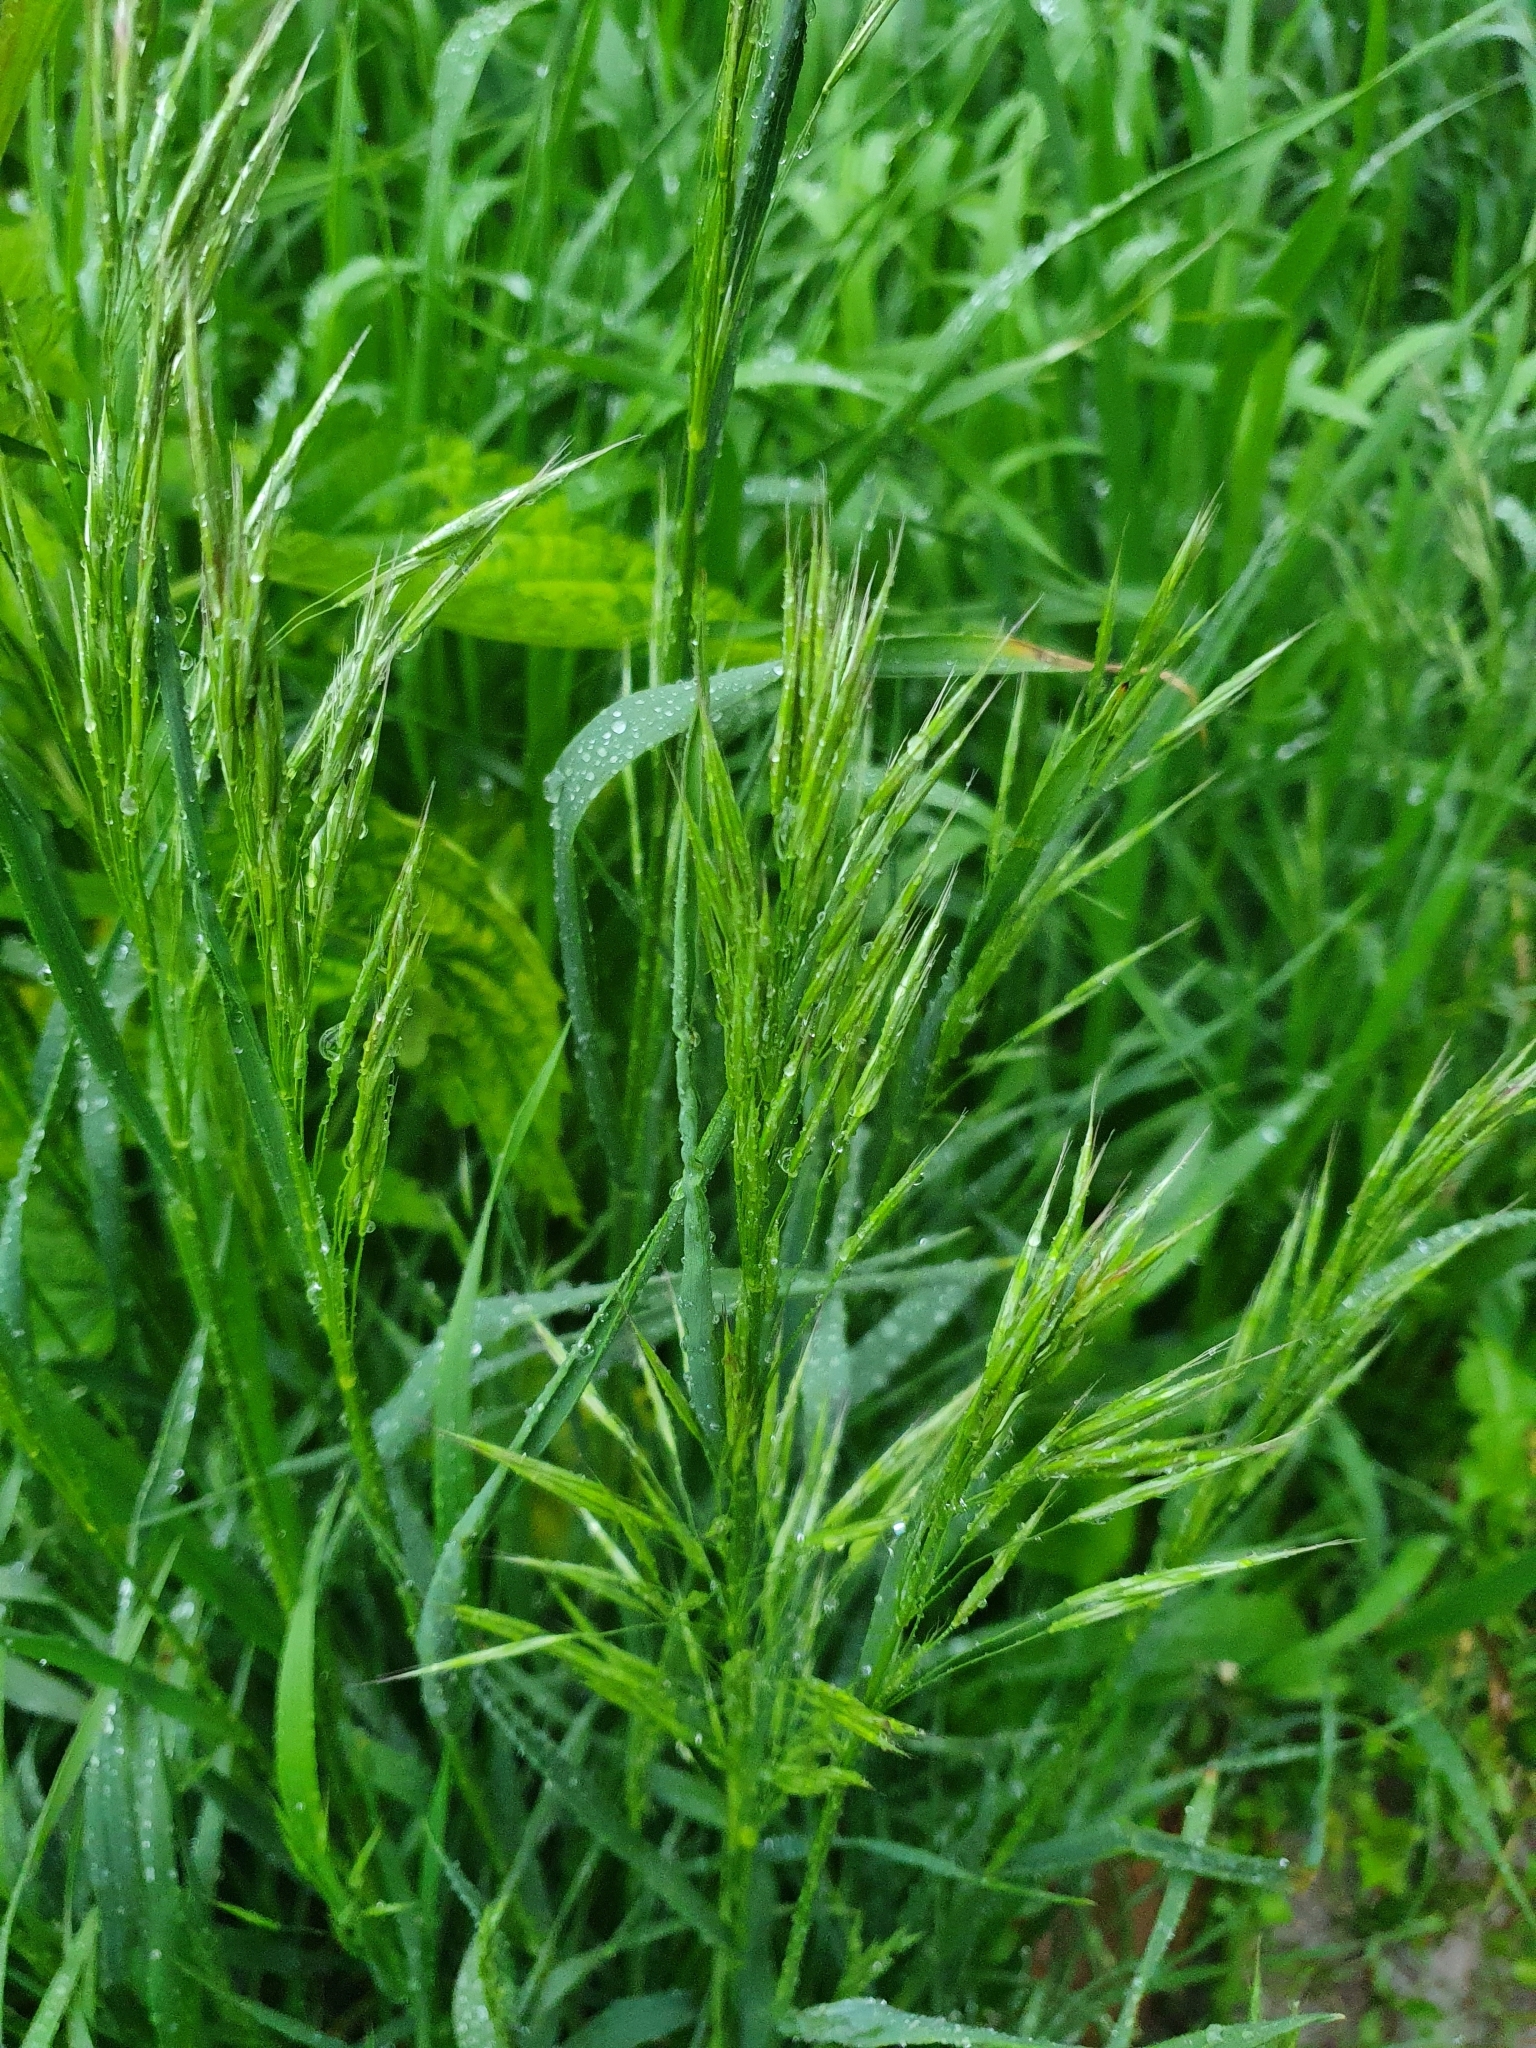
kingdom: Plantae
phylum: Tracheophyta
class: Liliopsida
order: Poales
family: Poaceae
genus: Bromus
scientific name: Bromus tectorum
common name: Cheatgrass
